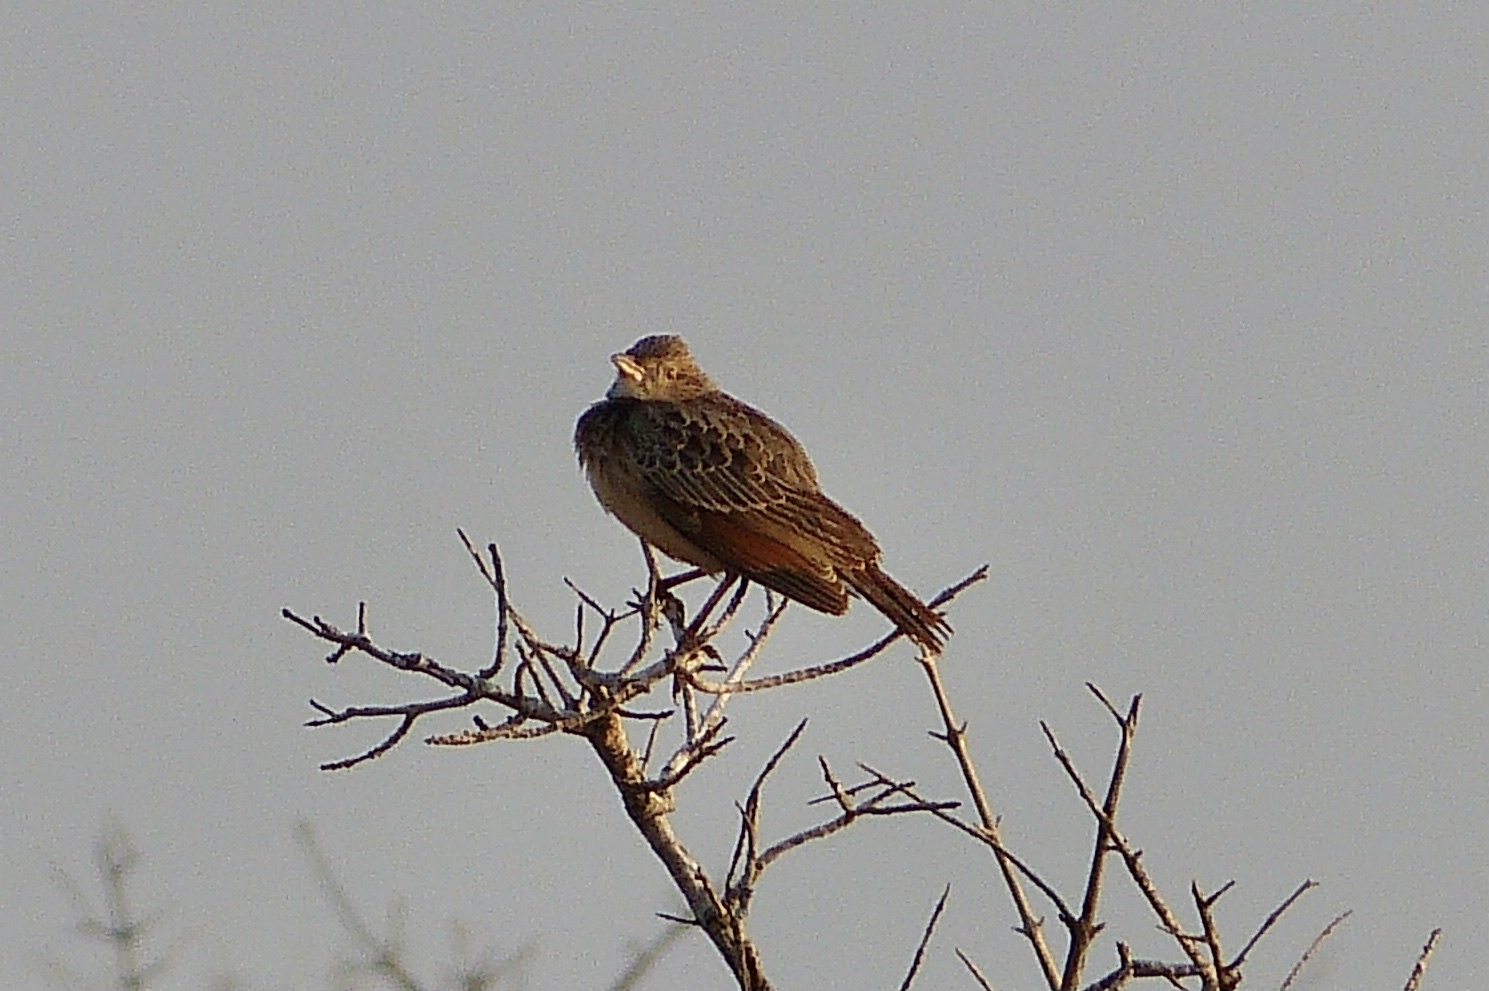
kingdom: Animalia
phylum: Chordata
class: Aves
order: Passeriformes
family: Alaudidae
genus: Mirafra
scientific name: Mirafra hypermetra
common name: Red-winged lark
